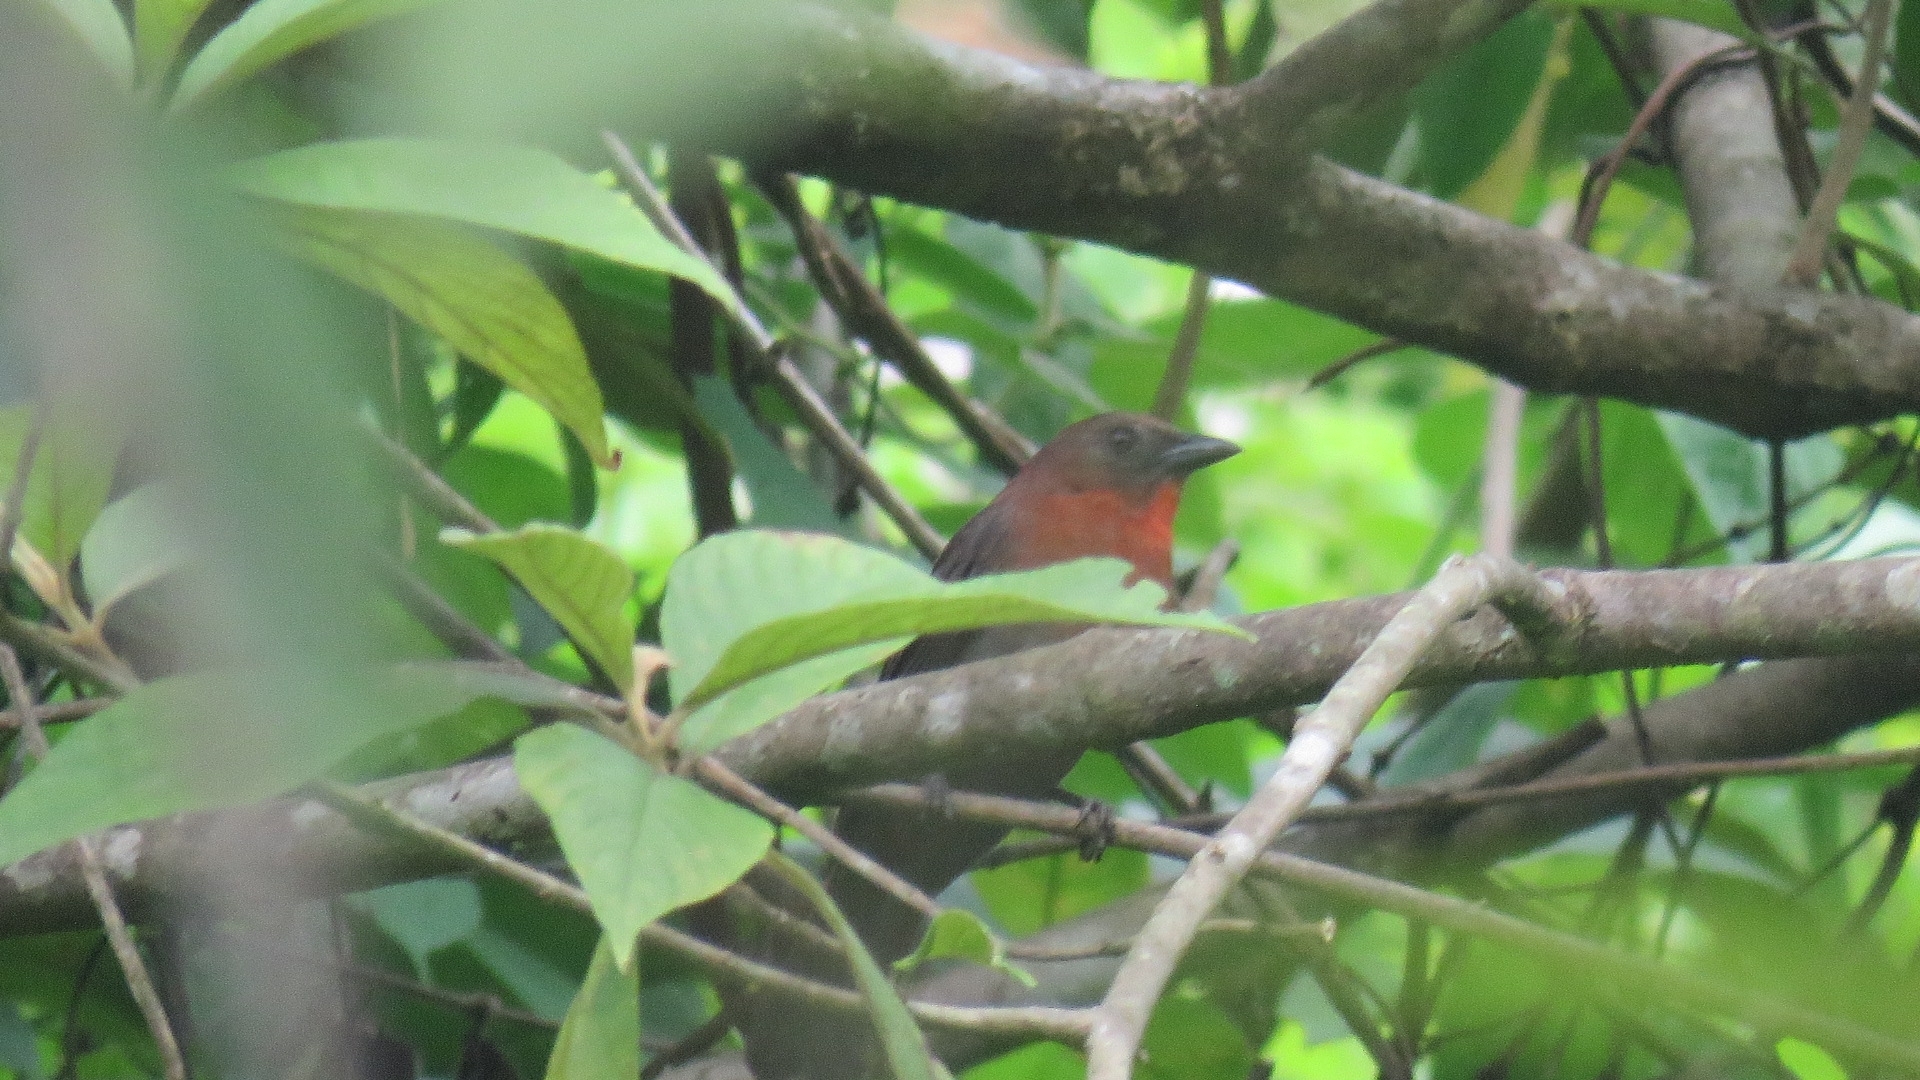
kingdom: Animalia
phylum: Chordata
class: Aves
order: Passeriformes
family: Cardinalidae
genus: Habia
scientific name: Habia fuscicauda
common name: Red-throated ant-tanager
